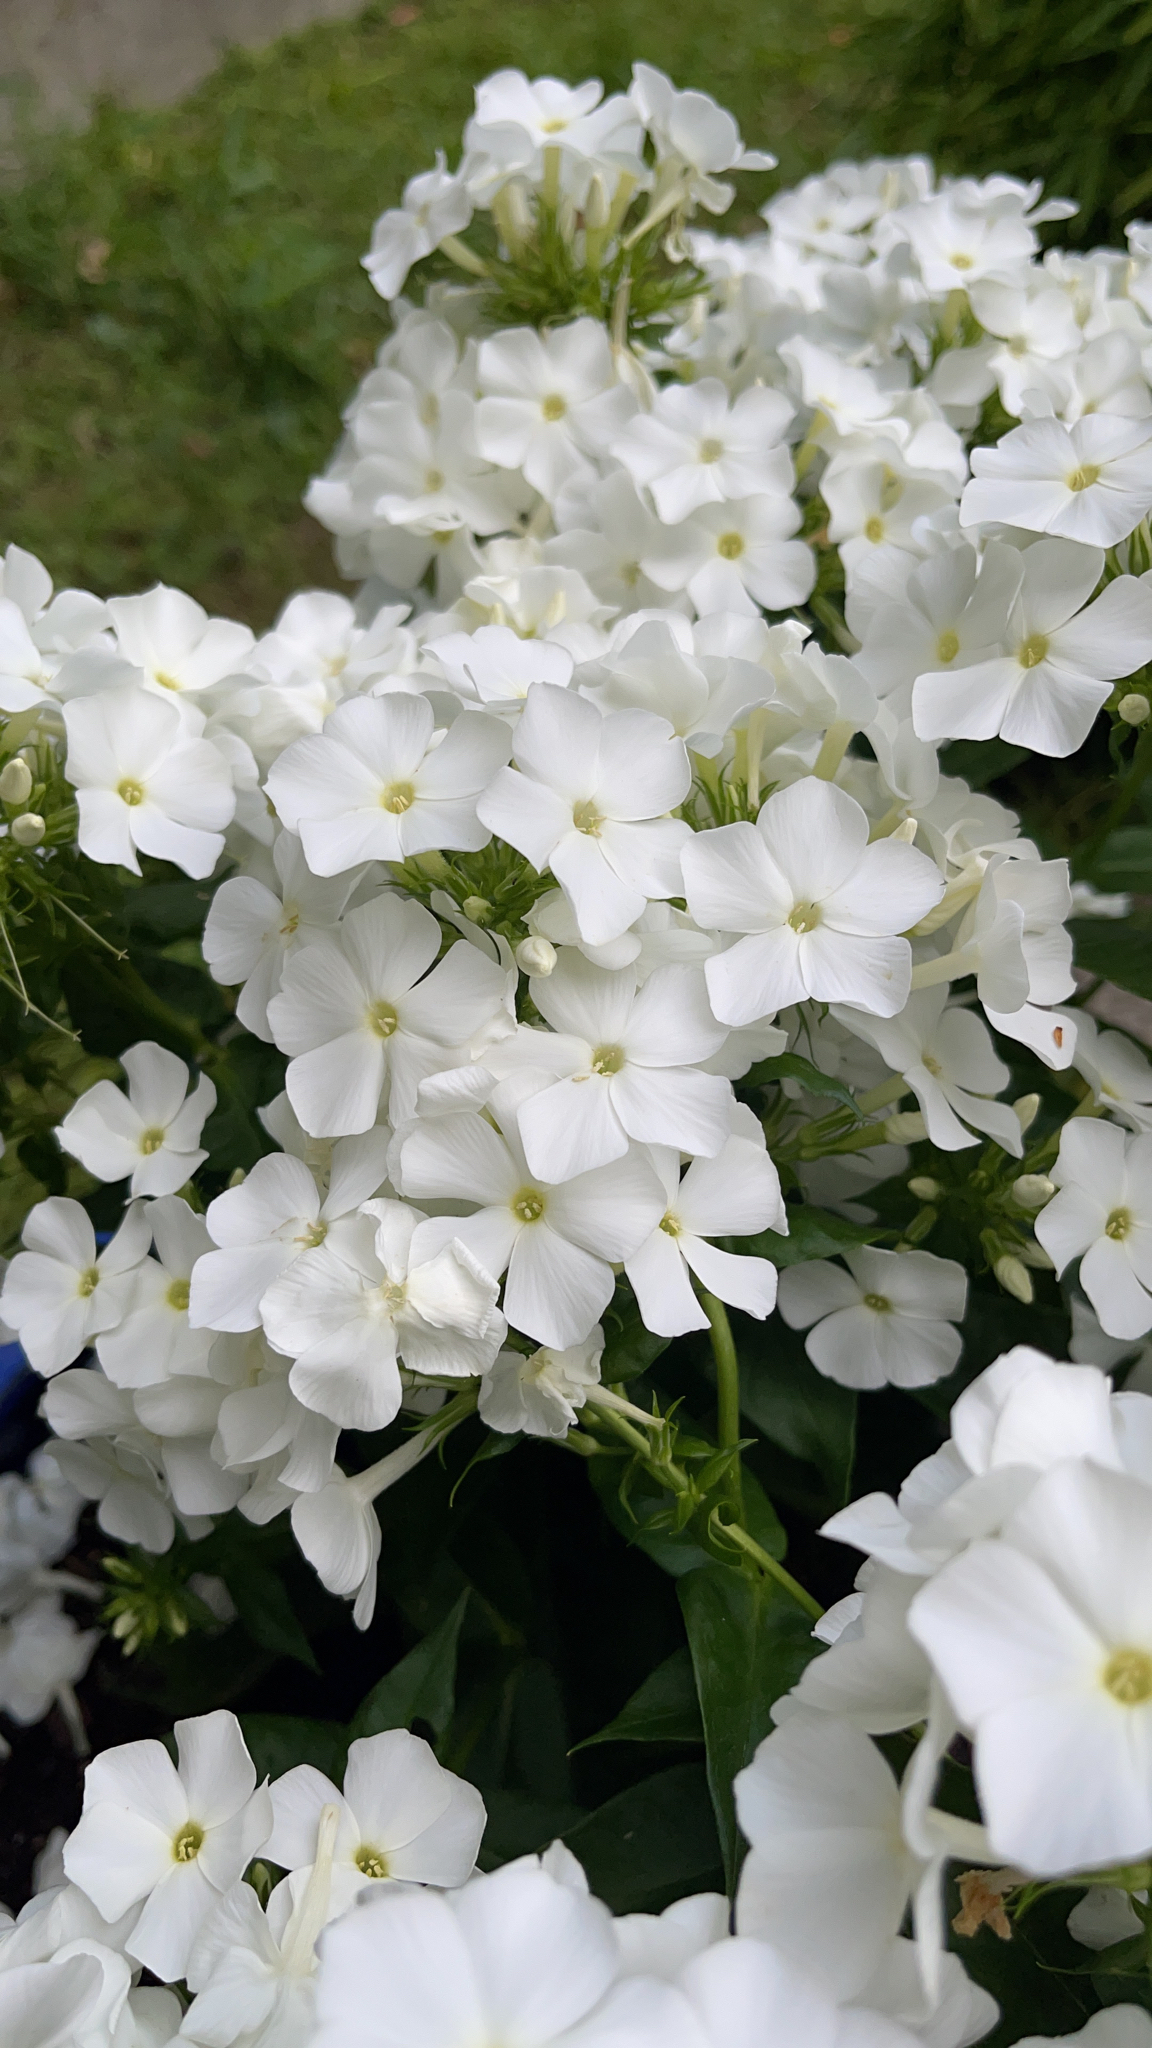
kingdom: Plantae
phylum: Tracheophyta
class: Magnoliopsida
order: Ericales
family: Polemoniaceae
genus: Phlox
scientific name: Phlox paniculata
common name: Fall phlox
